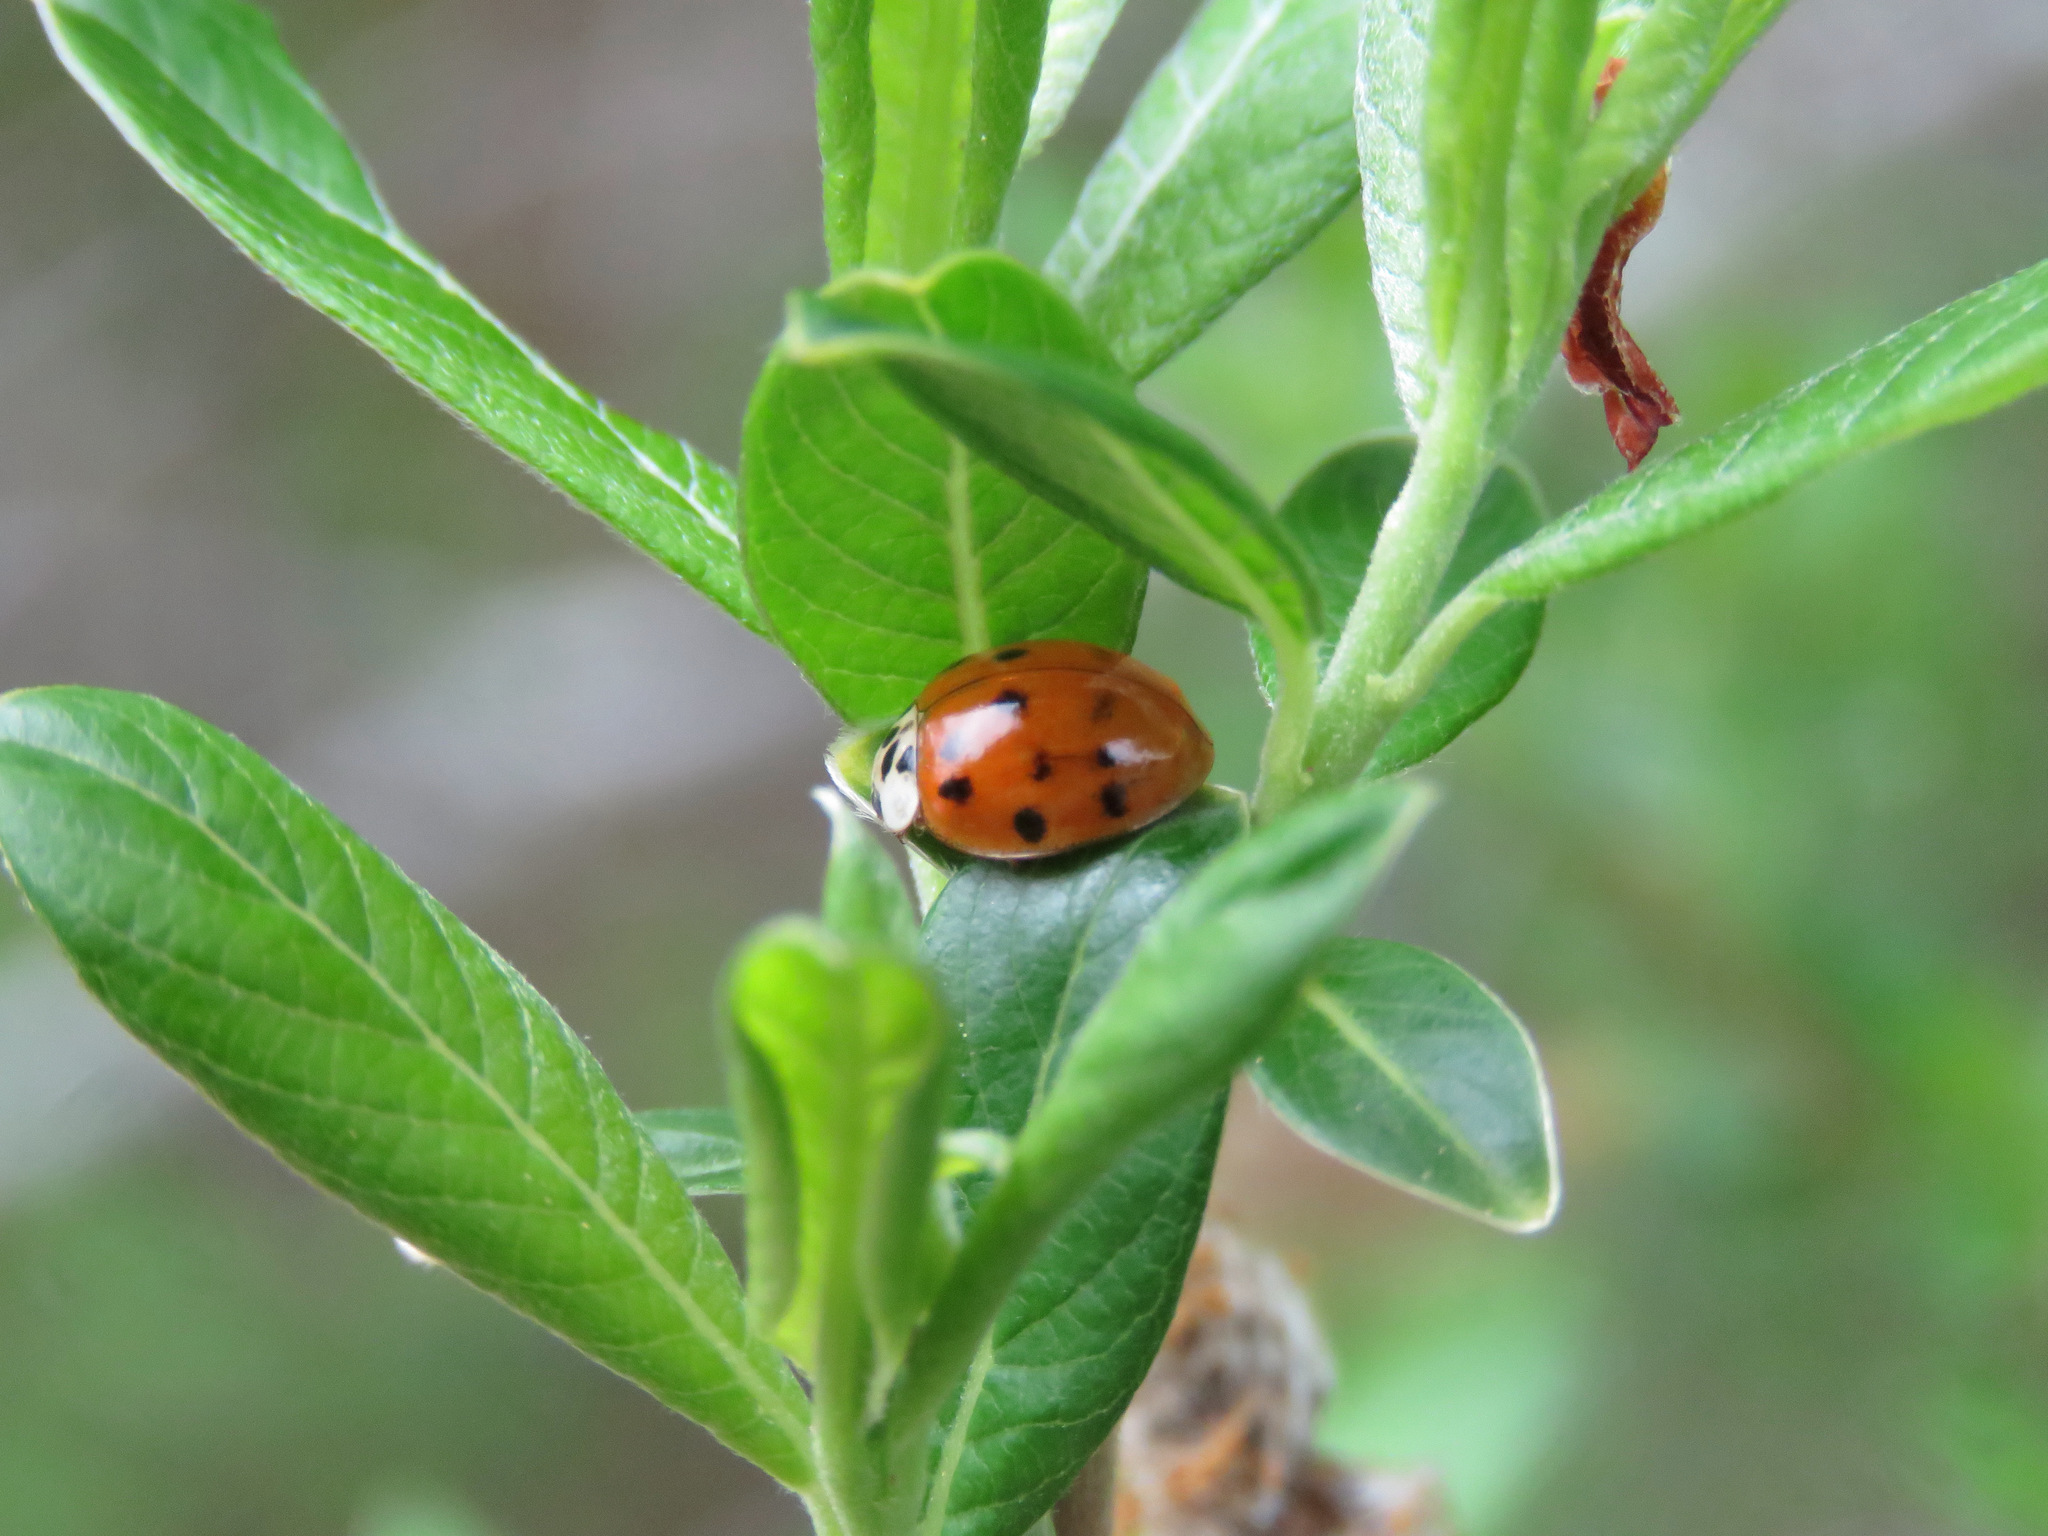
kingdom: Animalia
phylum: Arthropoda
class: Insecta
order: Coleoptera
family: Coccinellidae
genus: Harmonia
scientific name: Harmonia axyridis
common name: Harlequin ladybird
